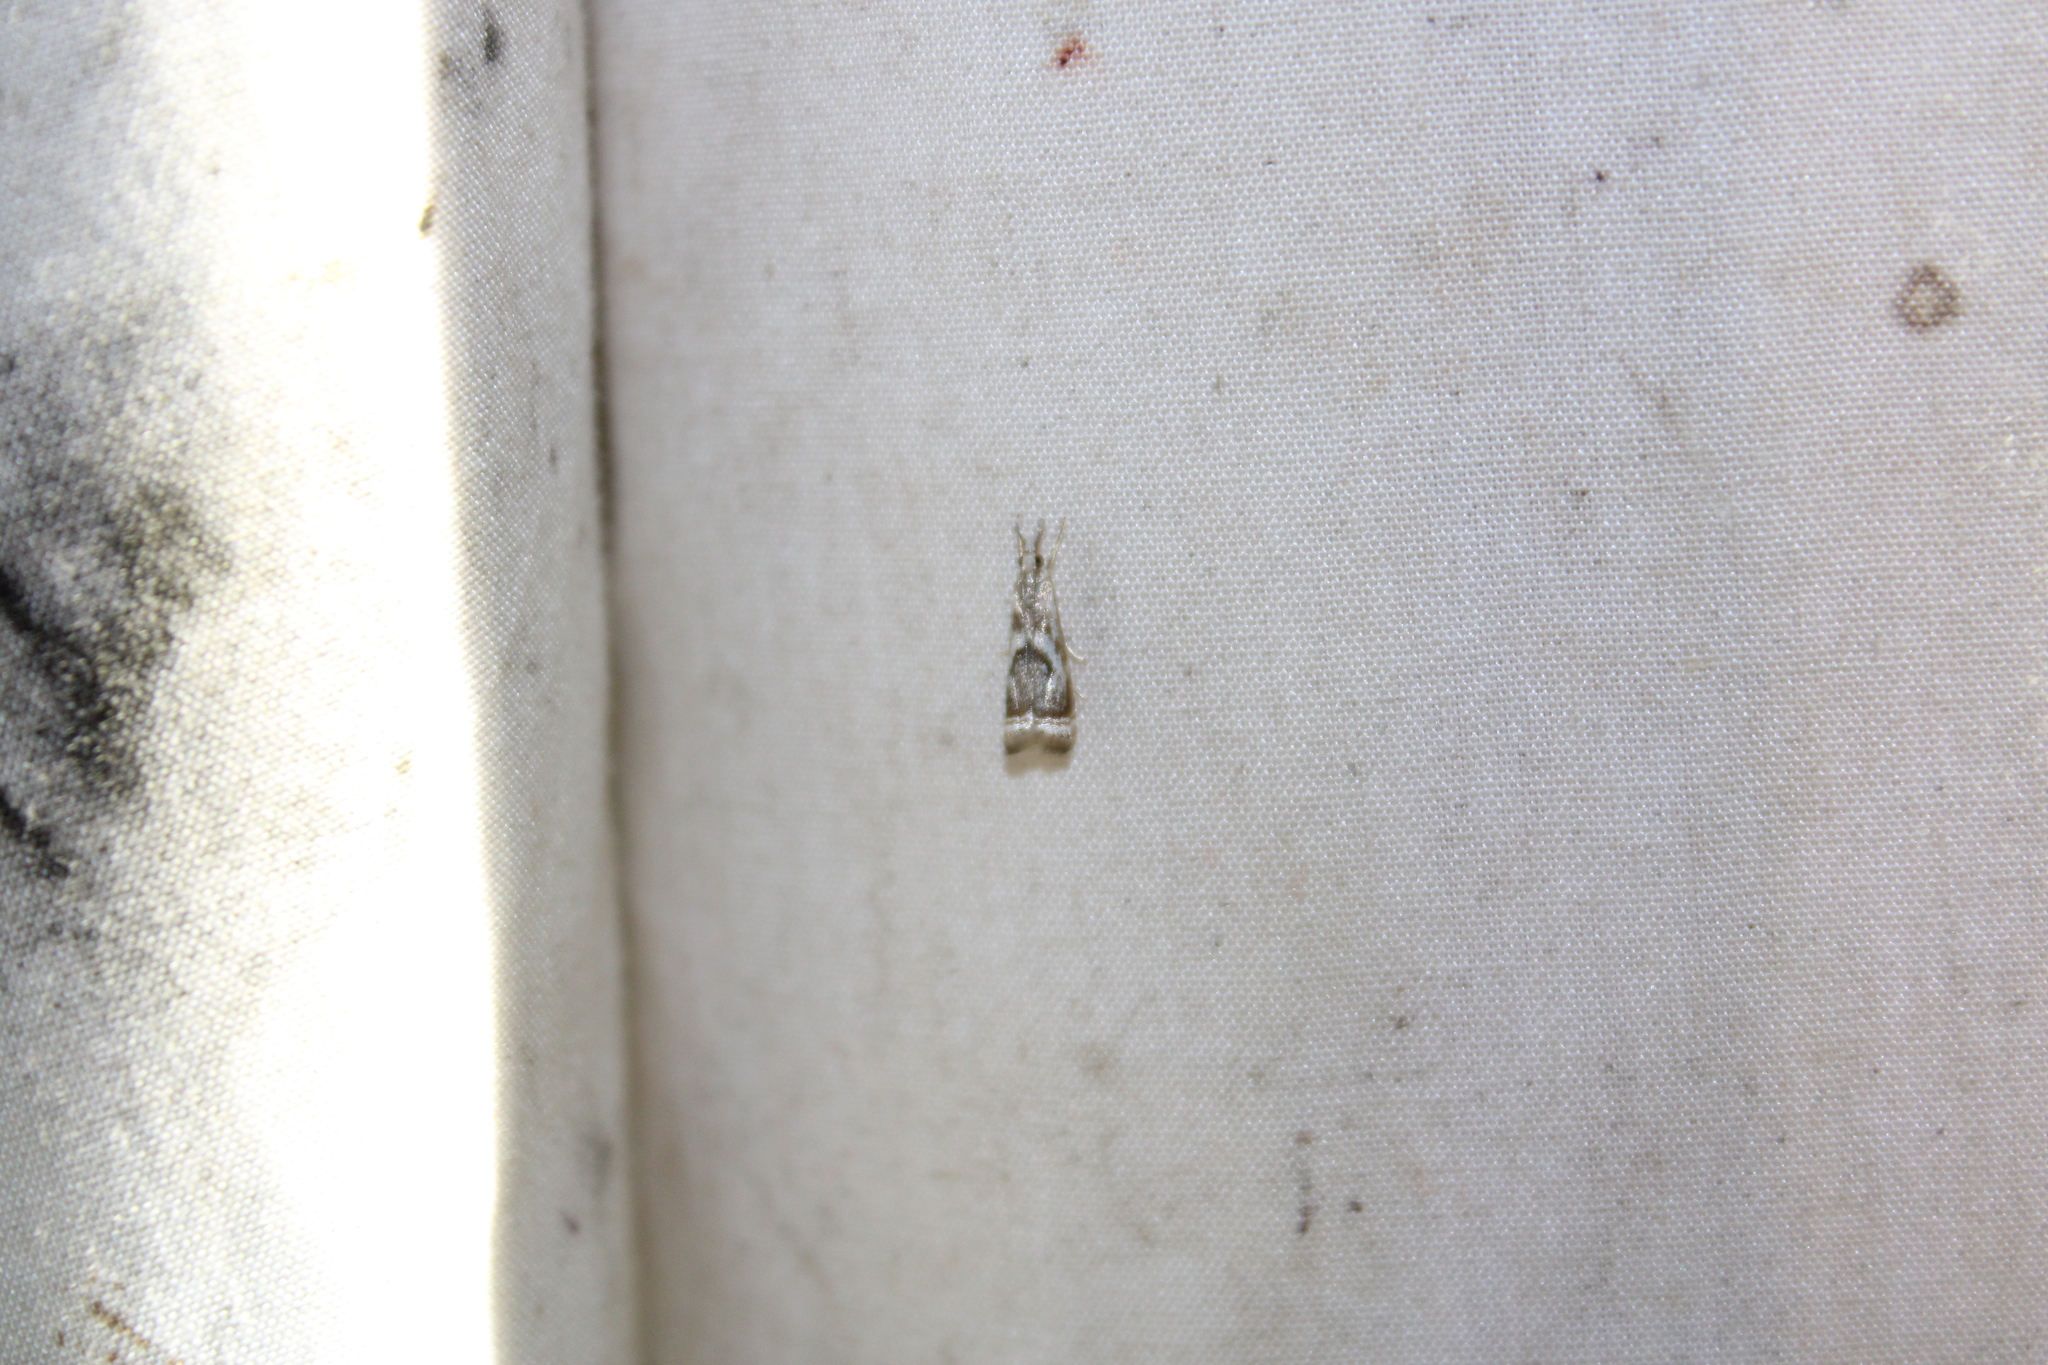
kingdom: Animalia
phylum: Arthropoda
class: Insecta
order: Lepidoptera
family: Crambidae
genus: Microcrambus
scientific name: Microcrambus elegans
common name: Elegant grass-veneer
